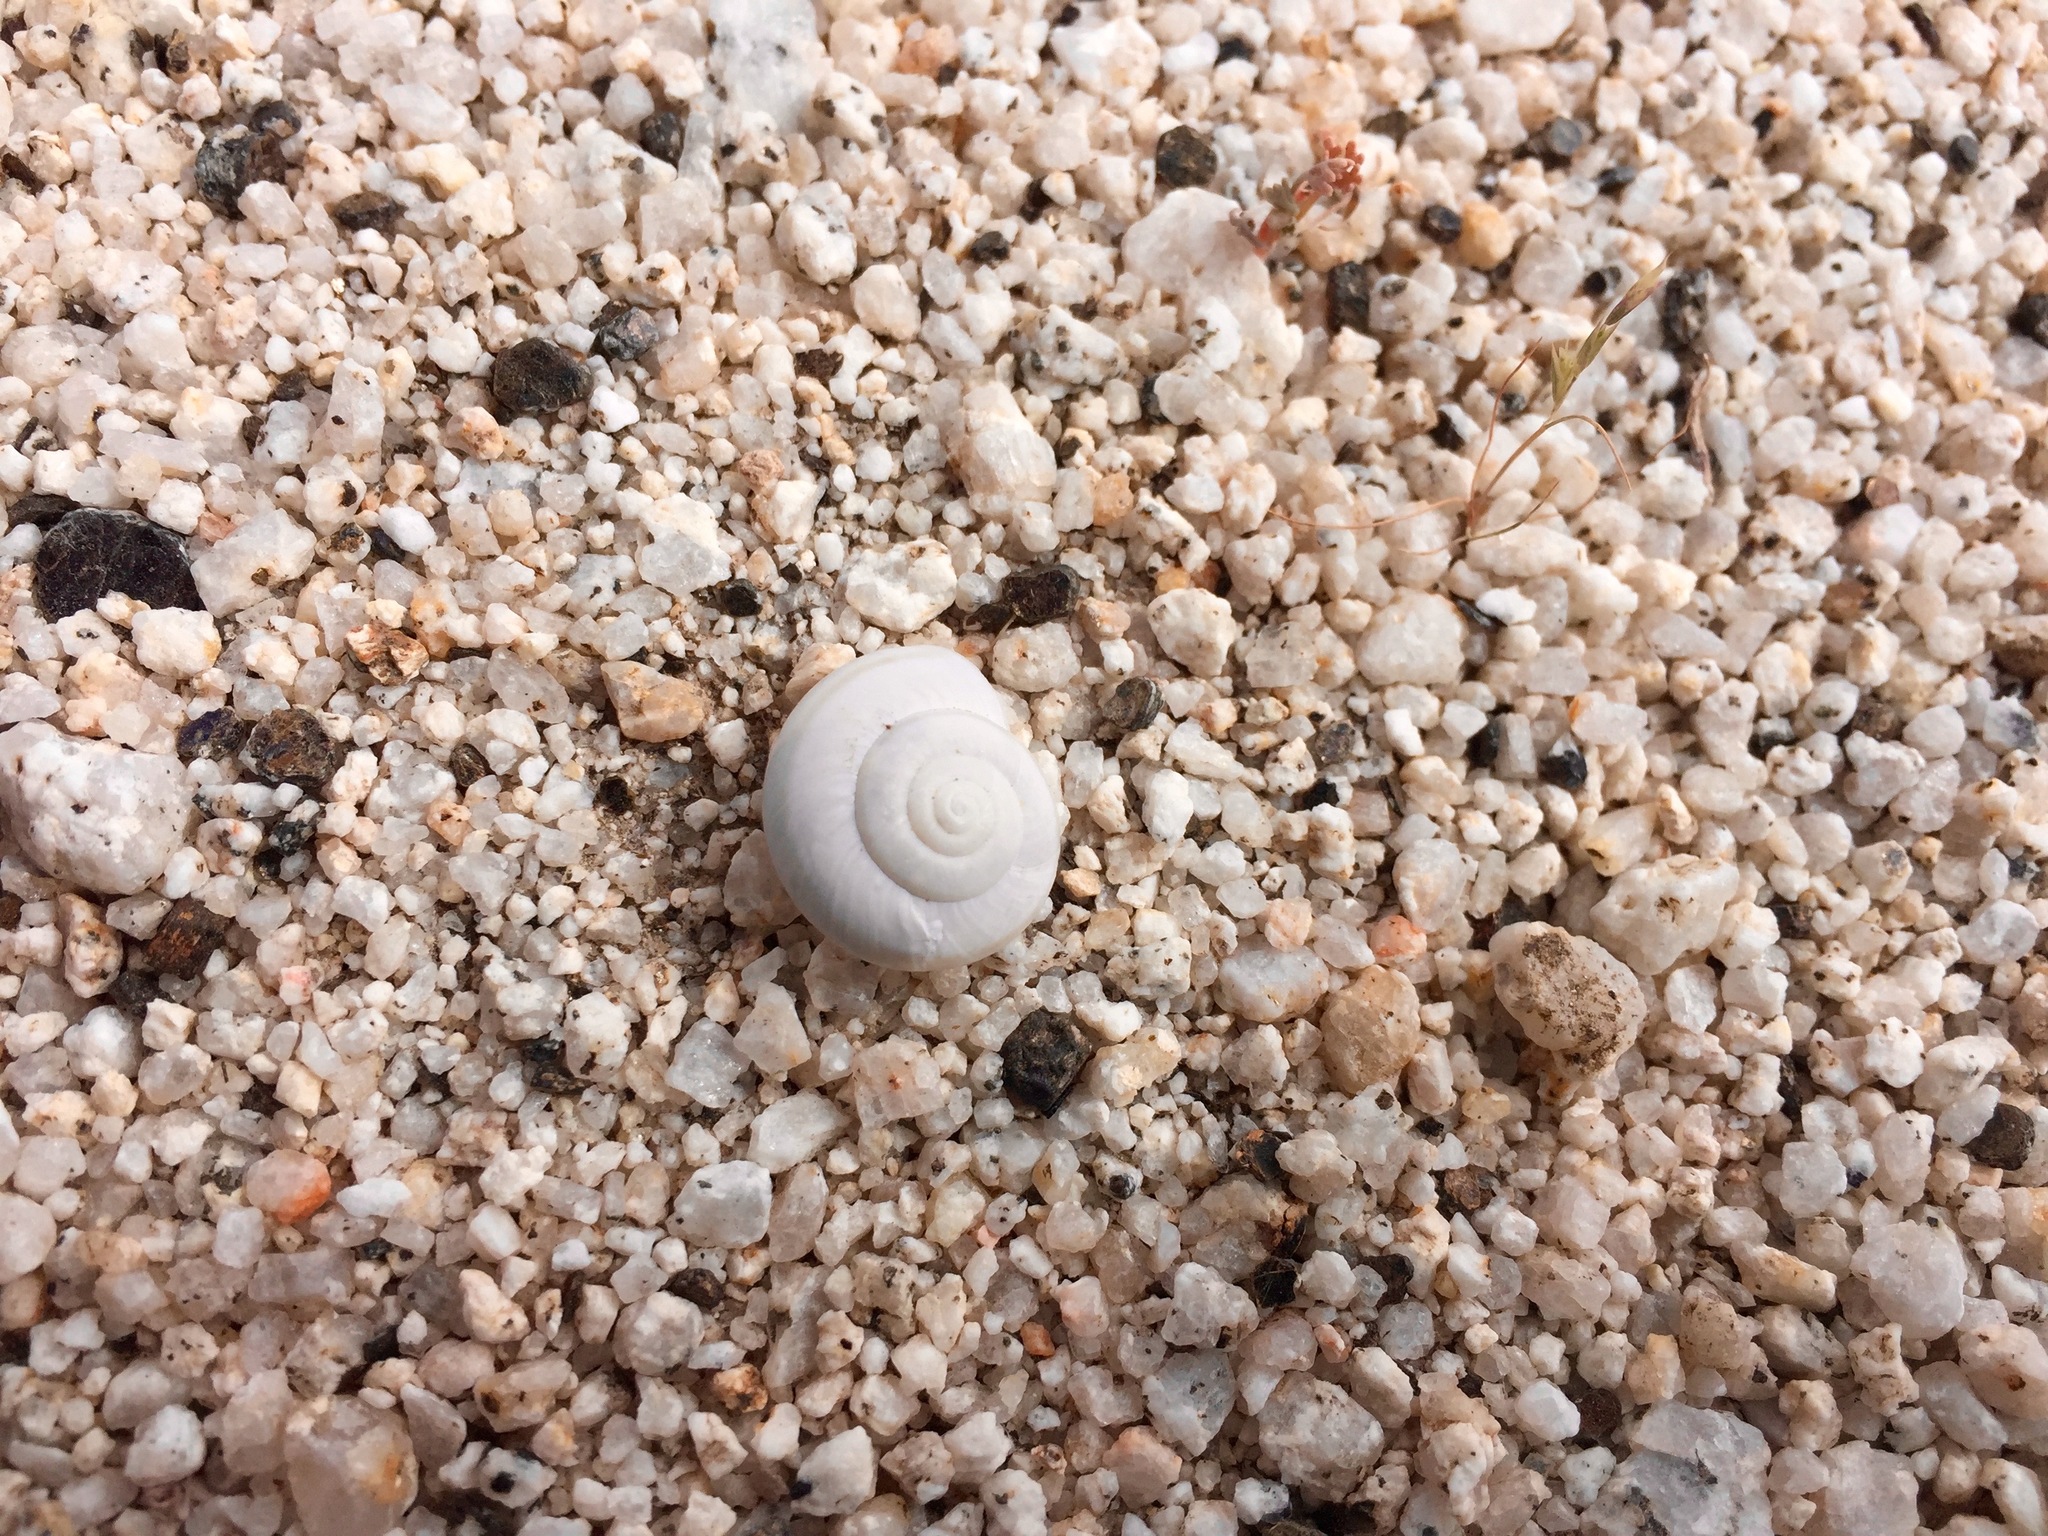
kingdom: Animalia
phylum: Mollusca
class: Gastropoda
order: Stylommatophora
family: Xanthonychidae
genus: Sonorelix
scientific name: Sonorelix borregoensis
